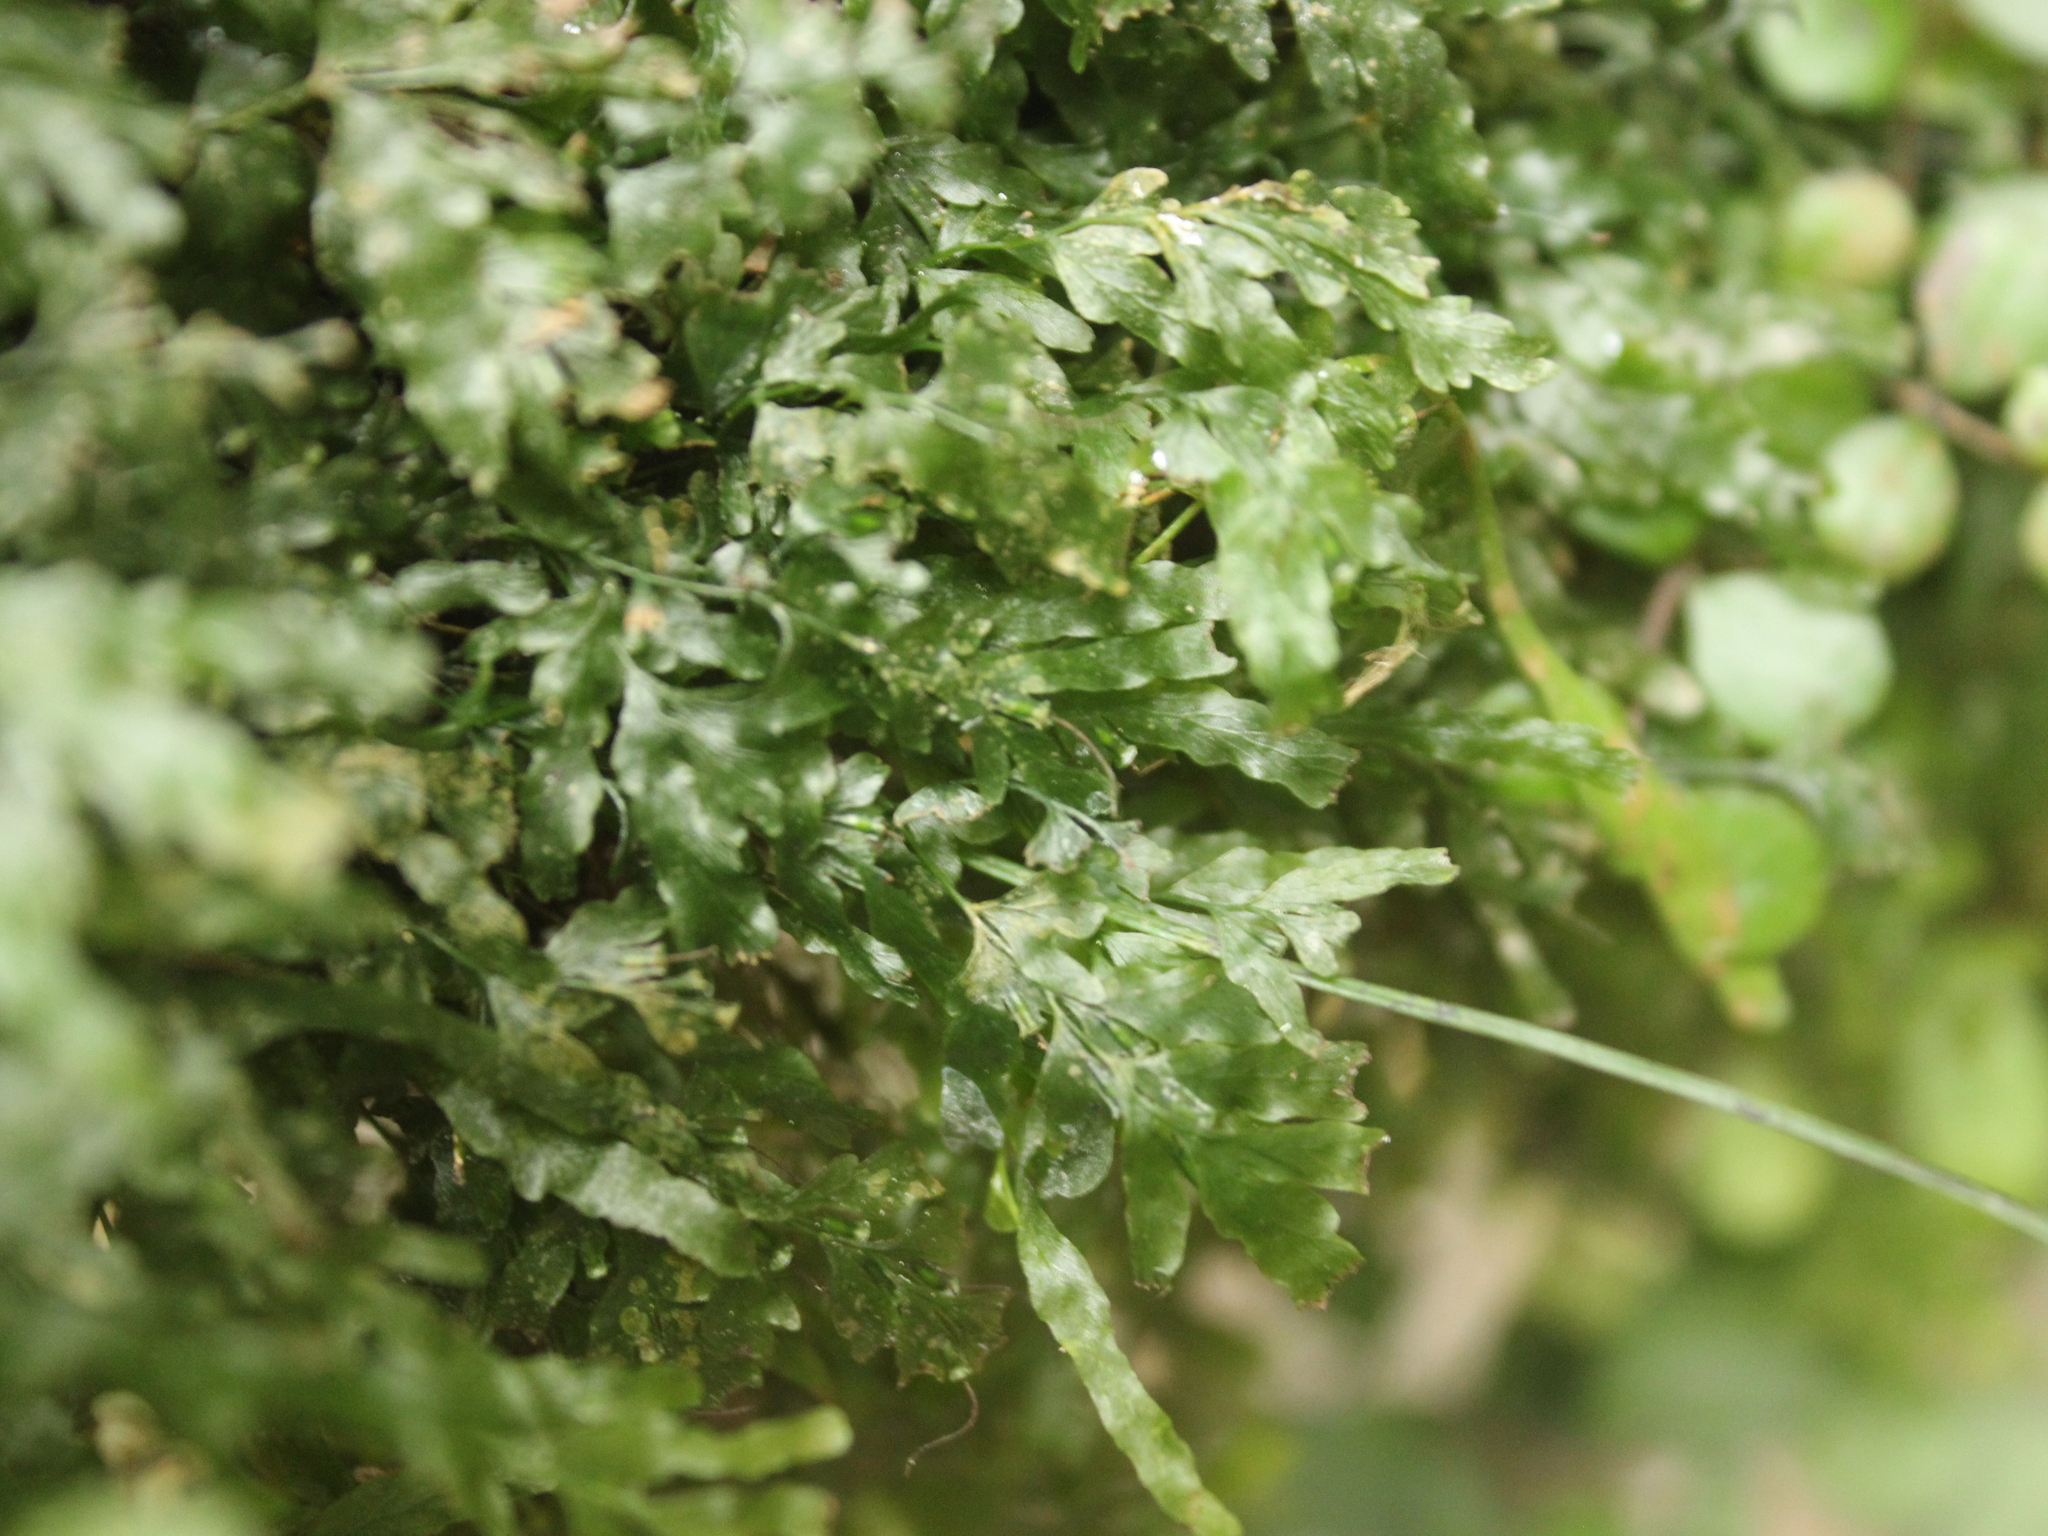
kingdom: Plantae
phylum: Tracheophyta
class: Polypodiopsida
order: Hymenophyllales
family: Hymenophyllaceae
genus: Polyphlebium
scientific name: Polyphlebium venosum
